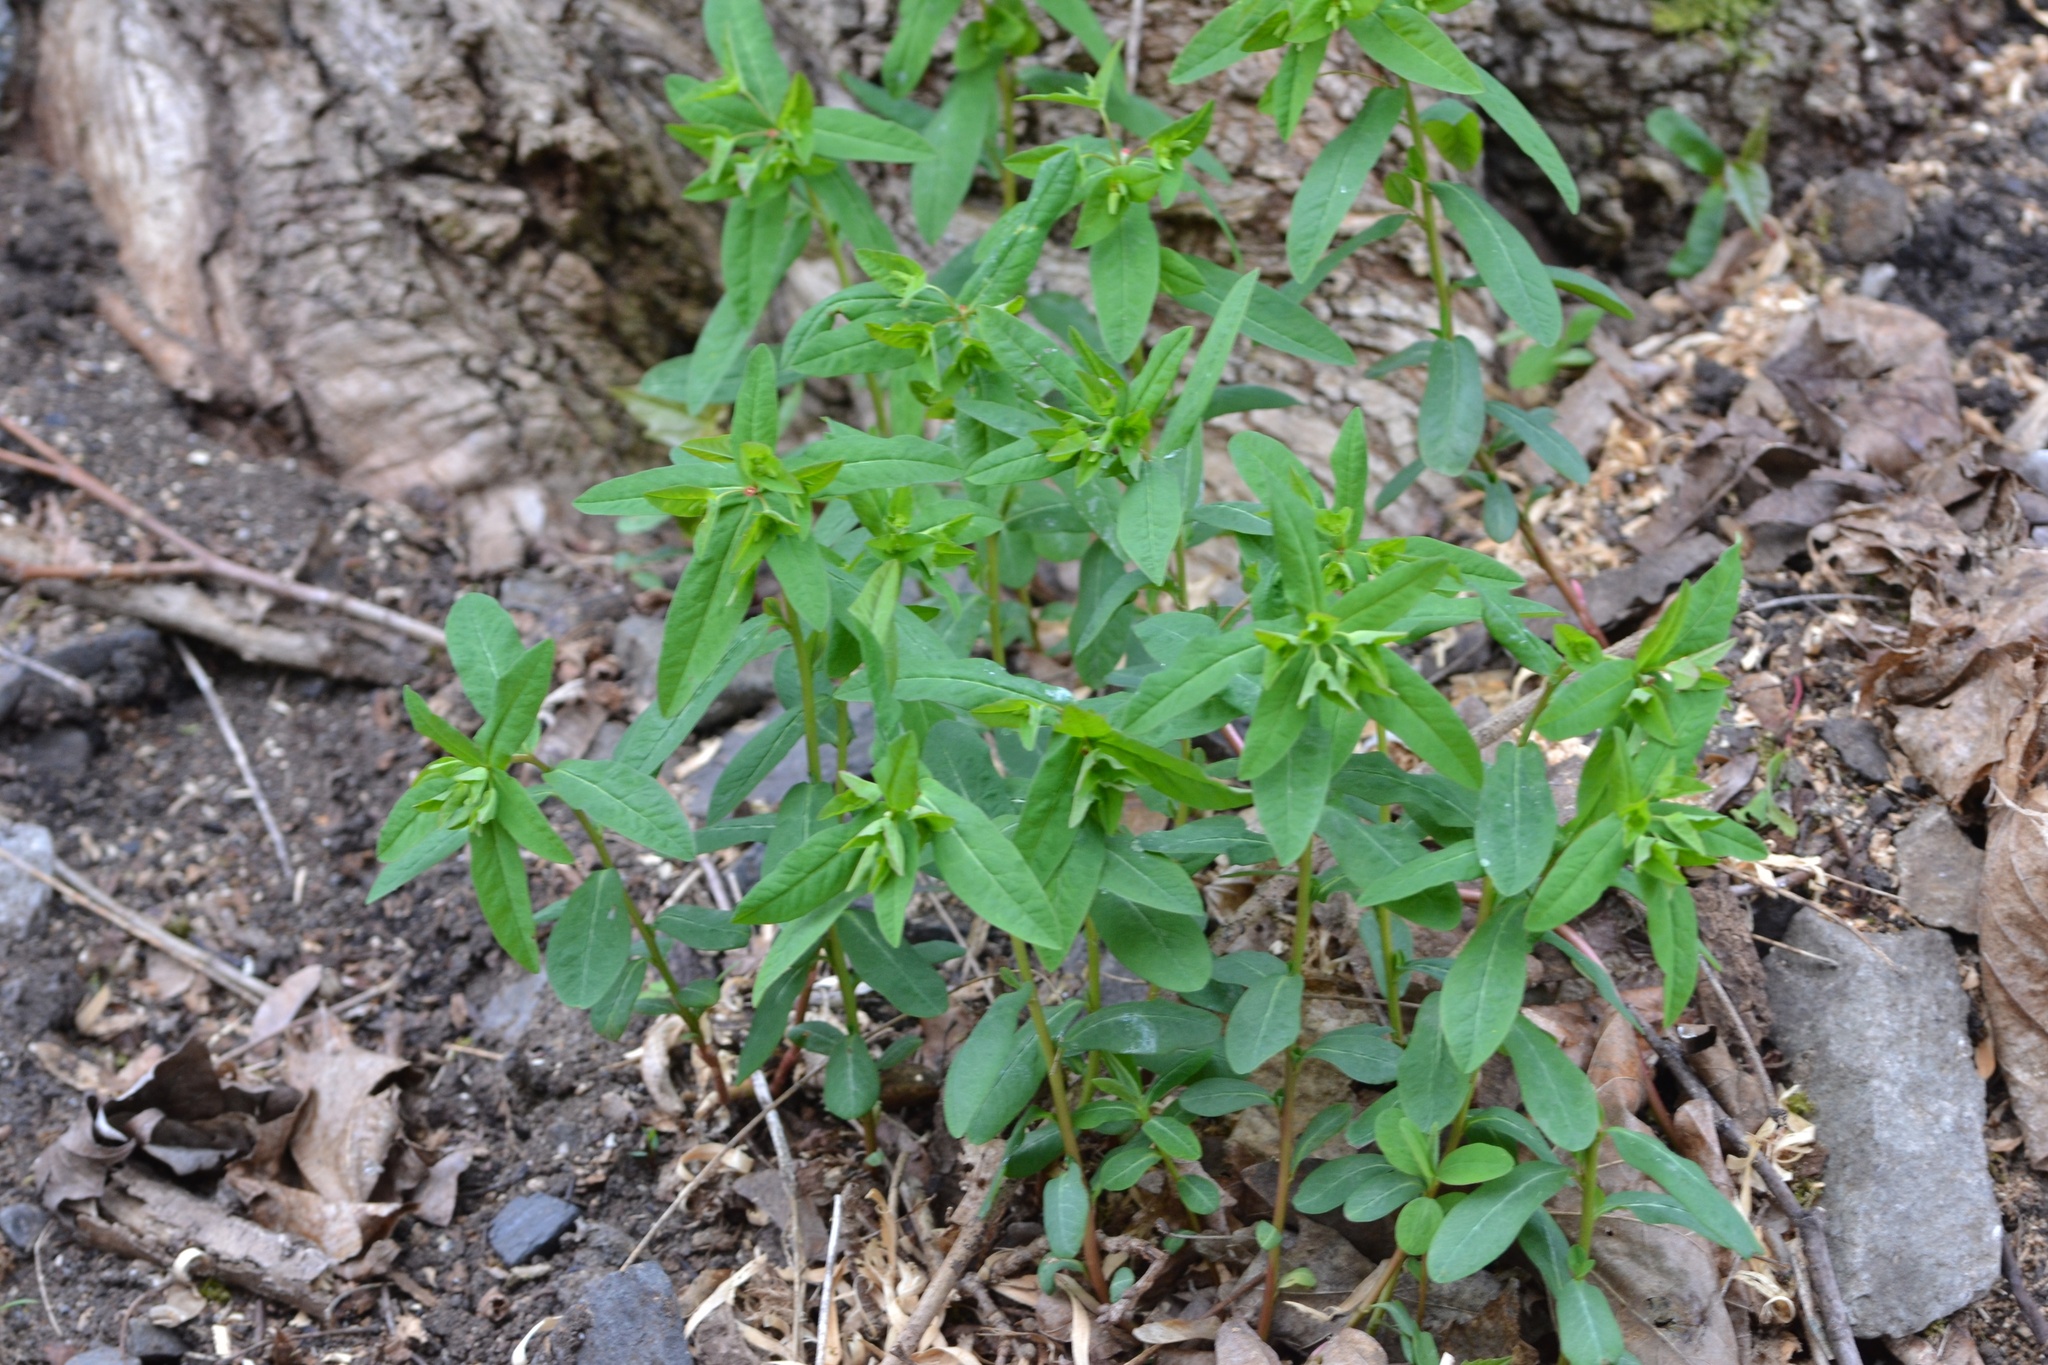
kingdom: Plantae
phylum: Tracheophyta
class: Magnoliopsida
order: Malpighiales
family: Euphorbiaceae
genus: Euphorbia
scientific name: Euphorbia dulcis
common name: Sweet spurge
